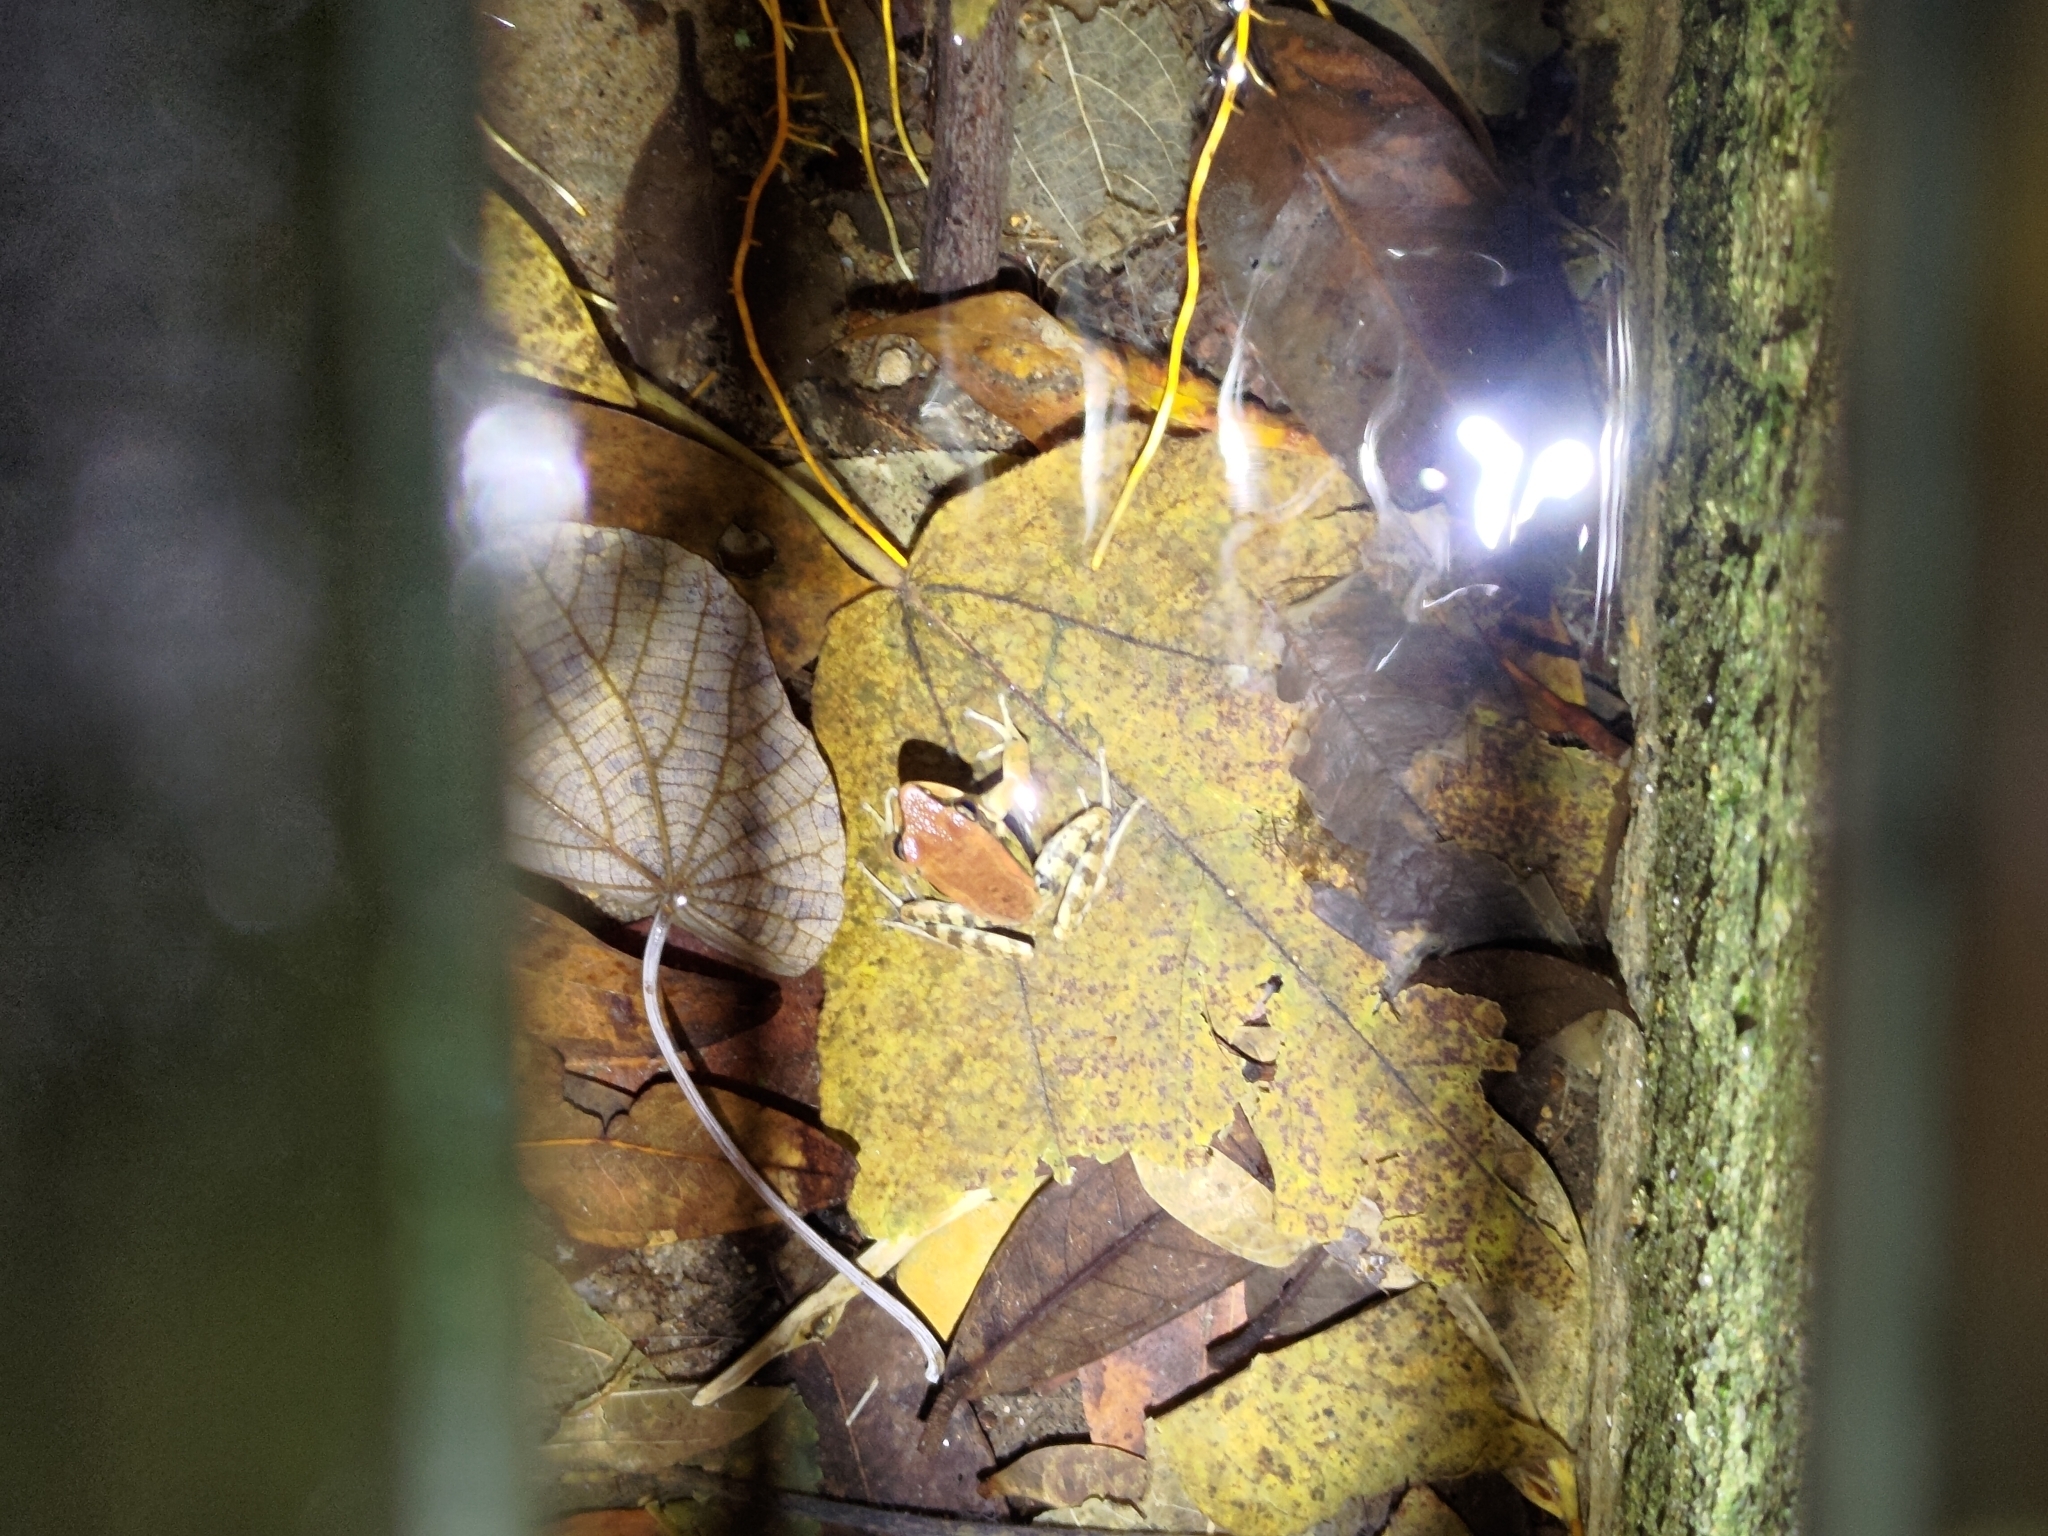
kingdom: Animalia
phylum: Chordata
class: Amphibia
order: Anura
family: Ranidae
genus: Hylarana
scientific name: Hylarana latouchii
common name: Broad-folded frog
